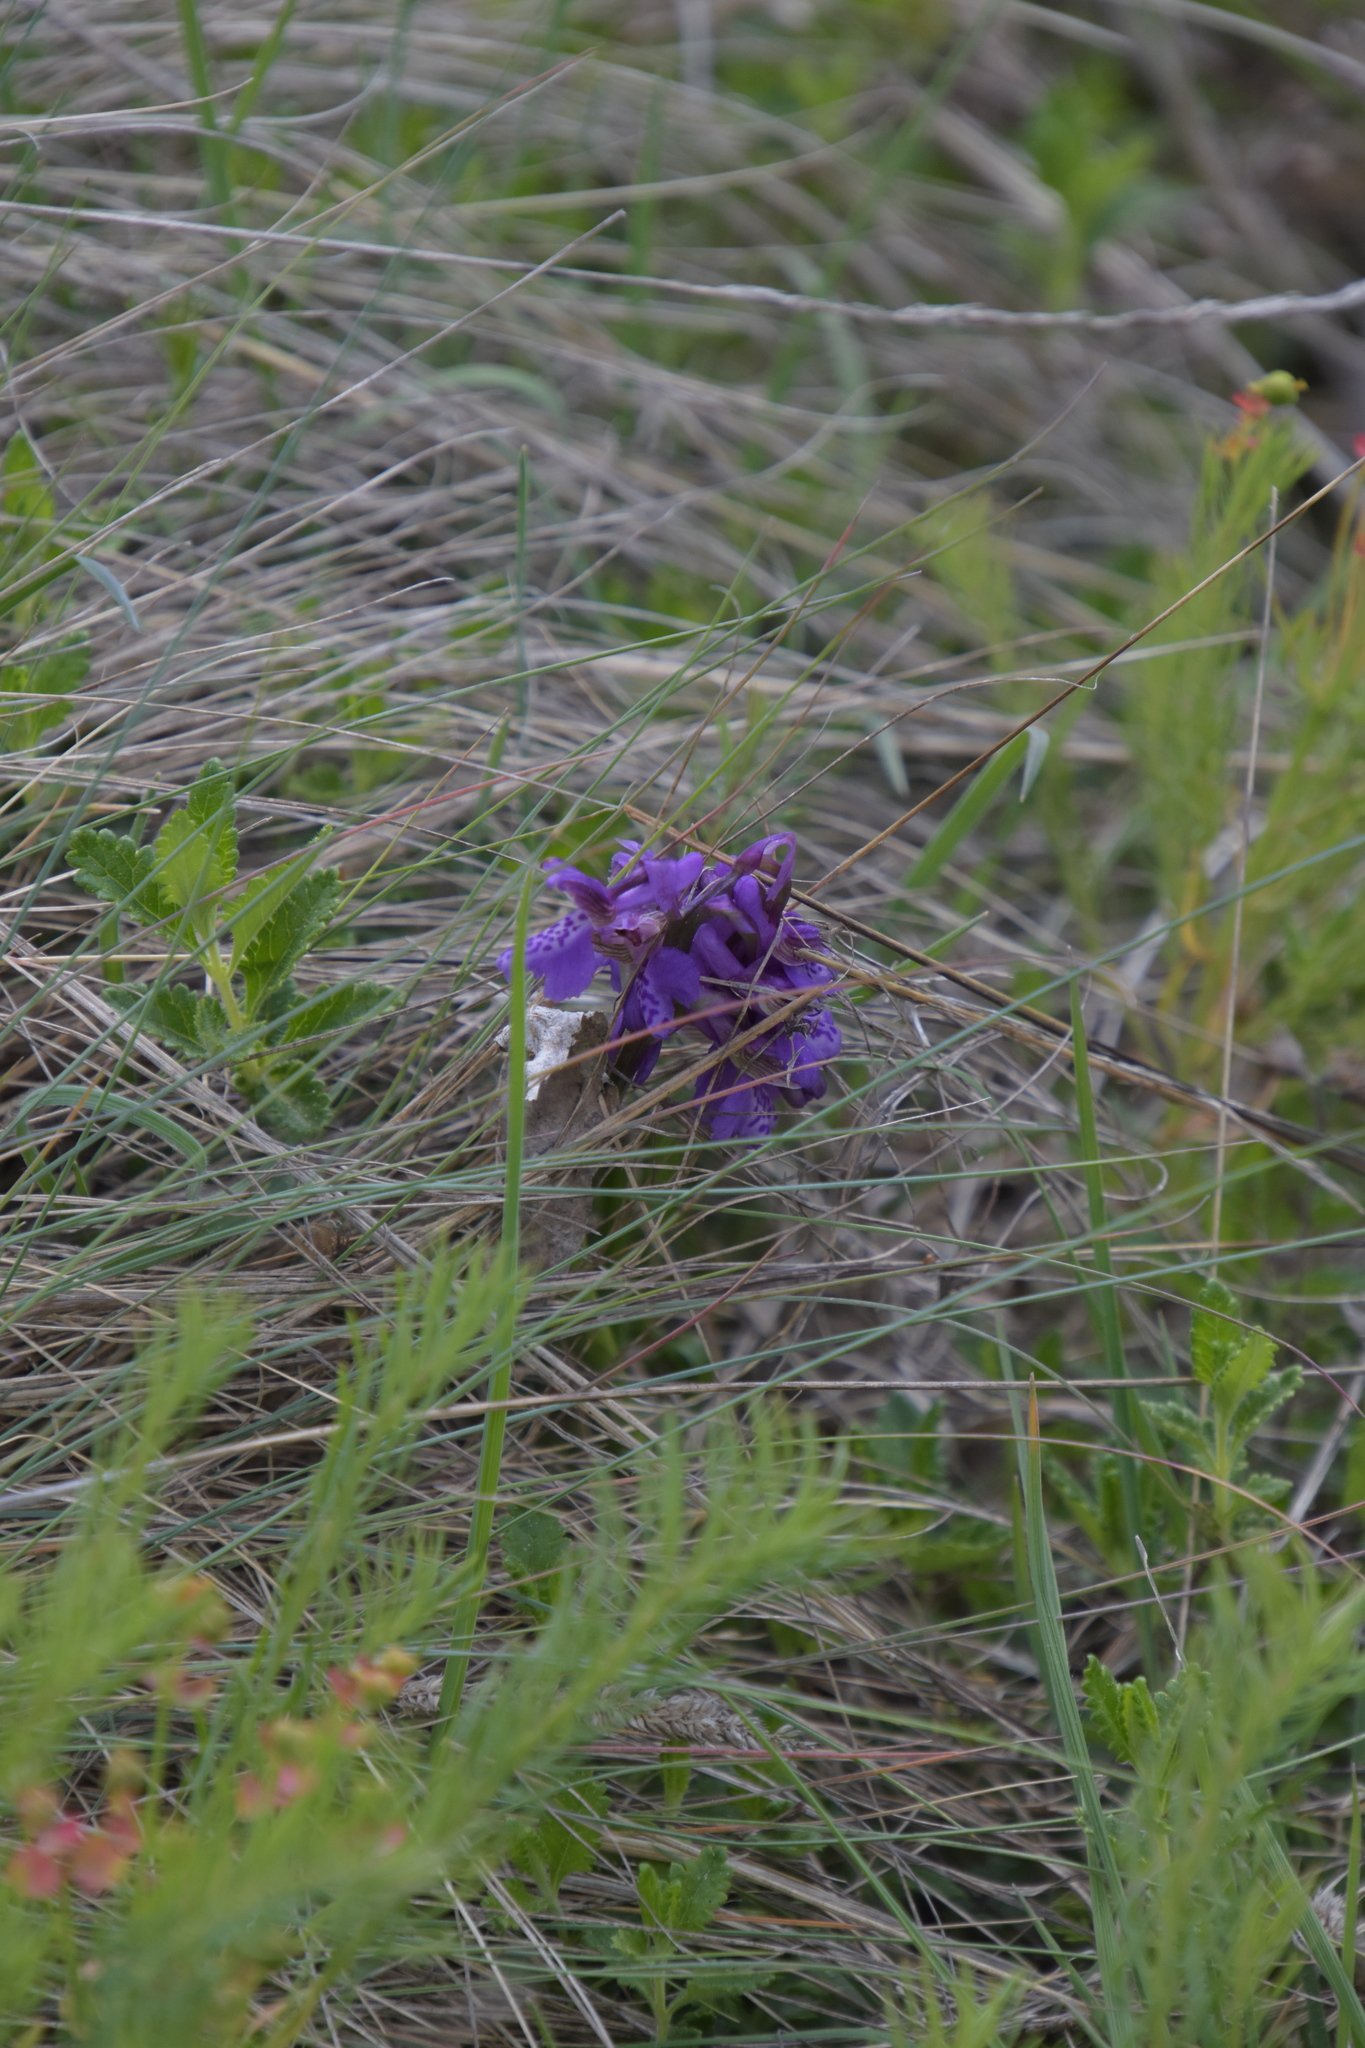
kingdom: Plantae
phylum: Tracheophyta
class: Liliopsida
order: Asparagales
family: Orchidaceae
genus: Anacamptis
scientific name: Anacamptis morio
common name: Green-winged orchid
